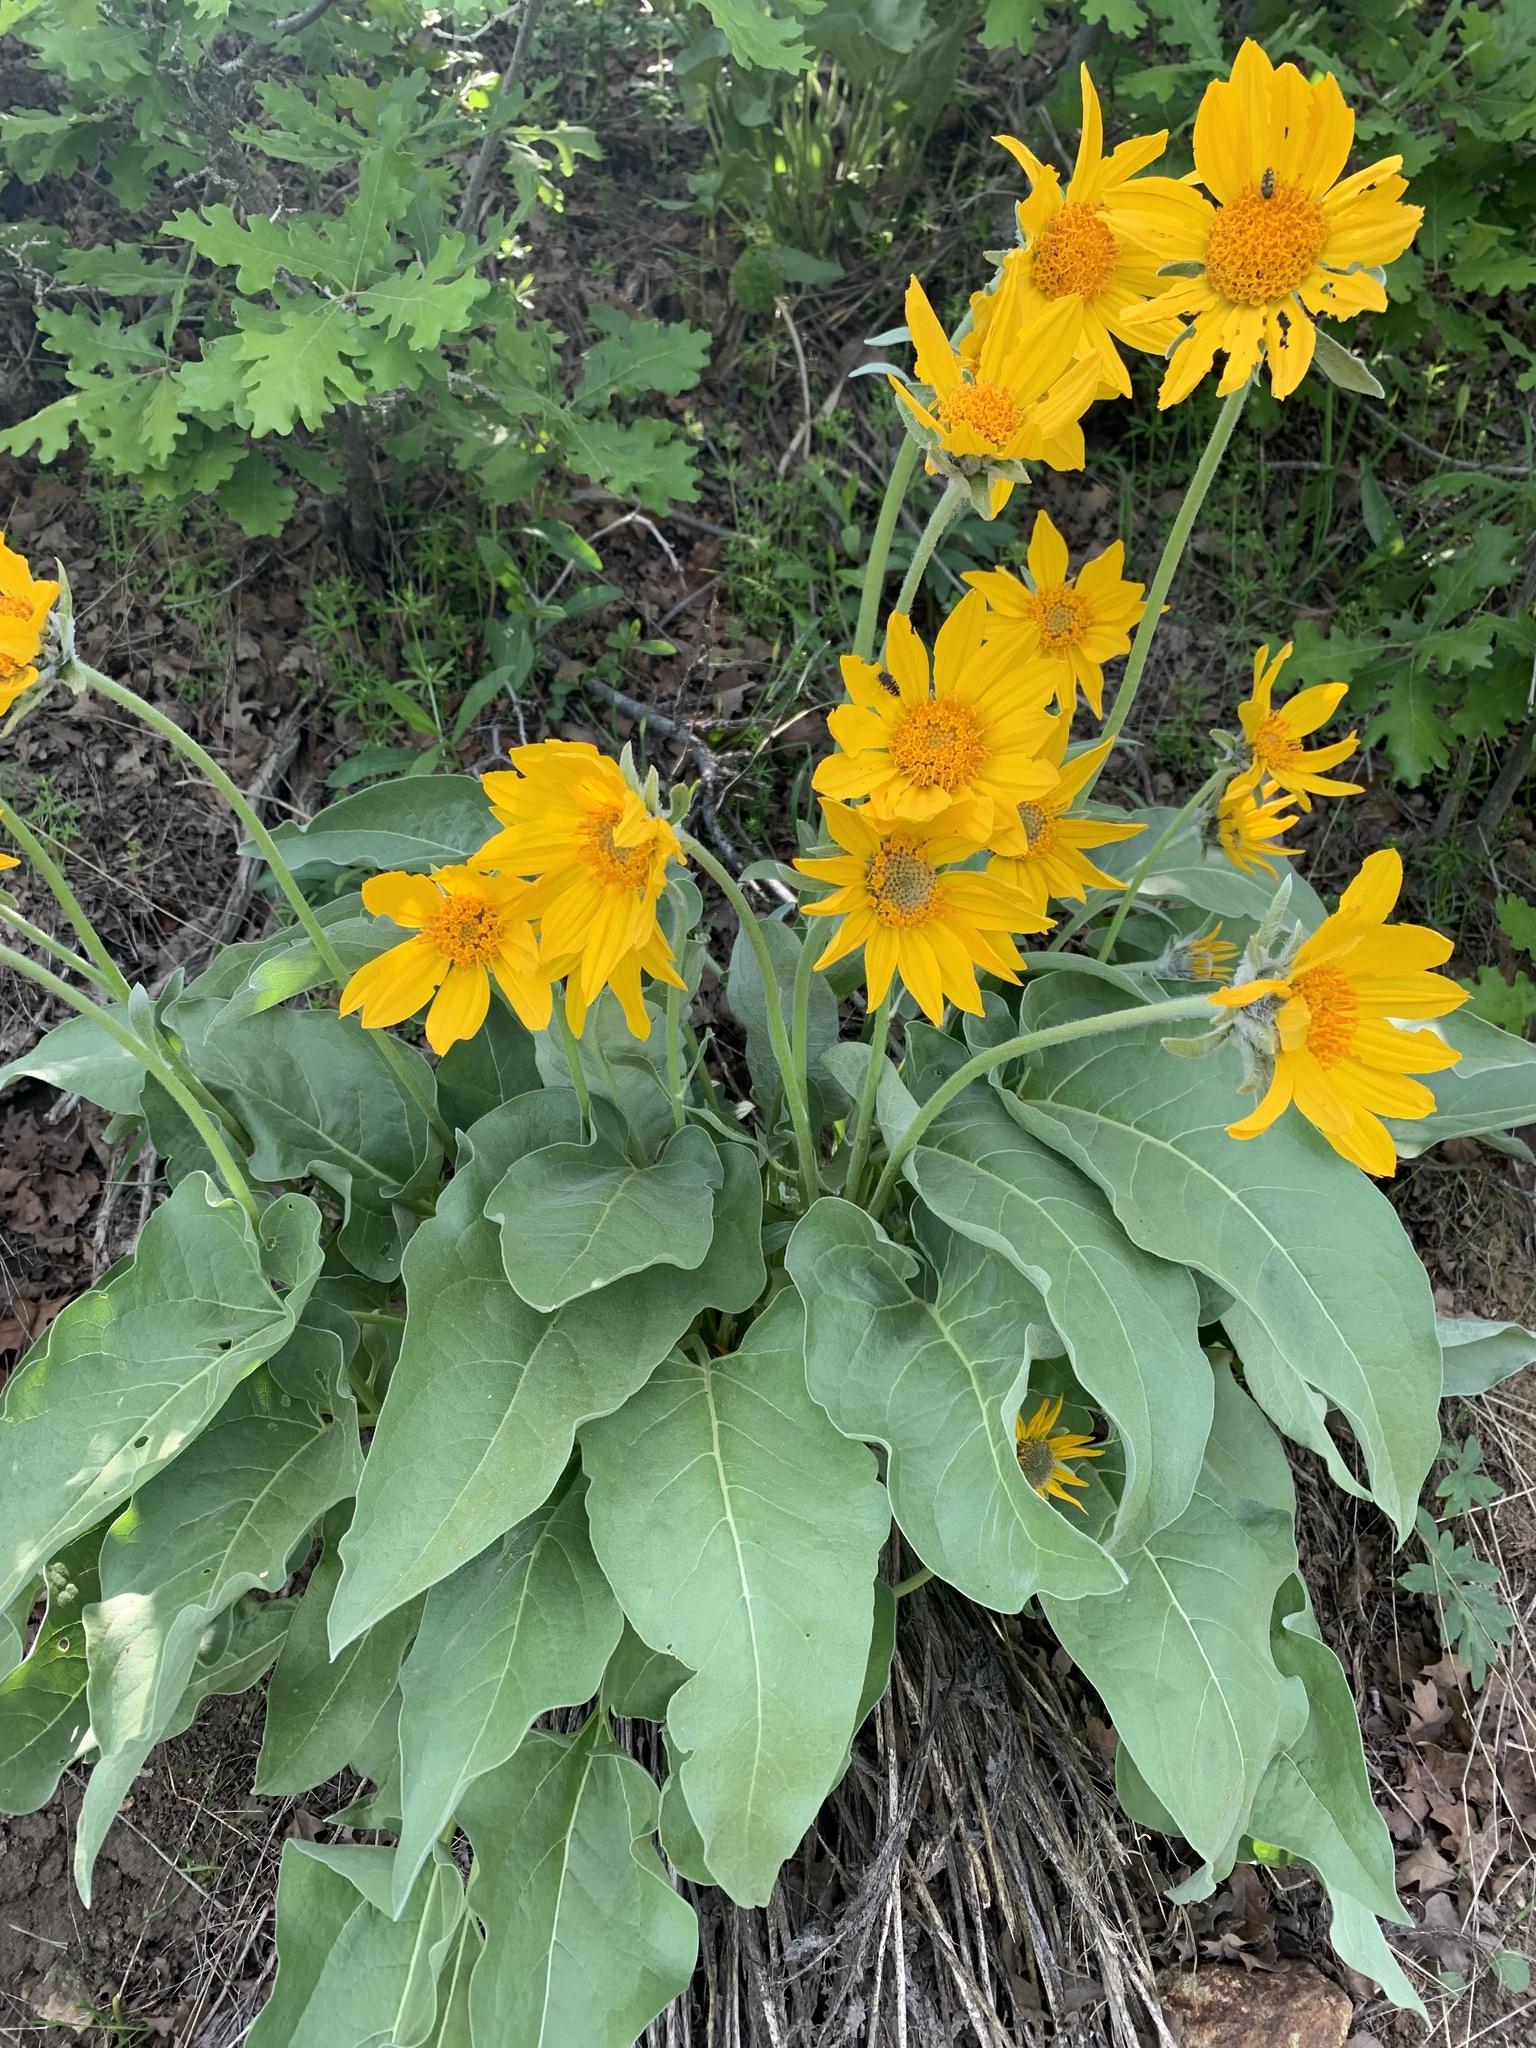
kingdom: Plantae
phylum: Tracheophyta
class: Magnoliopsida
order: Asterales
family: Asteraceae
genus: Wyethia
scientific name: Wyethia sagittata
